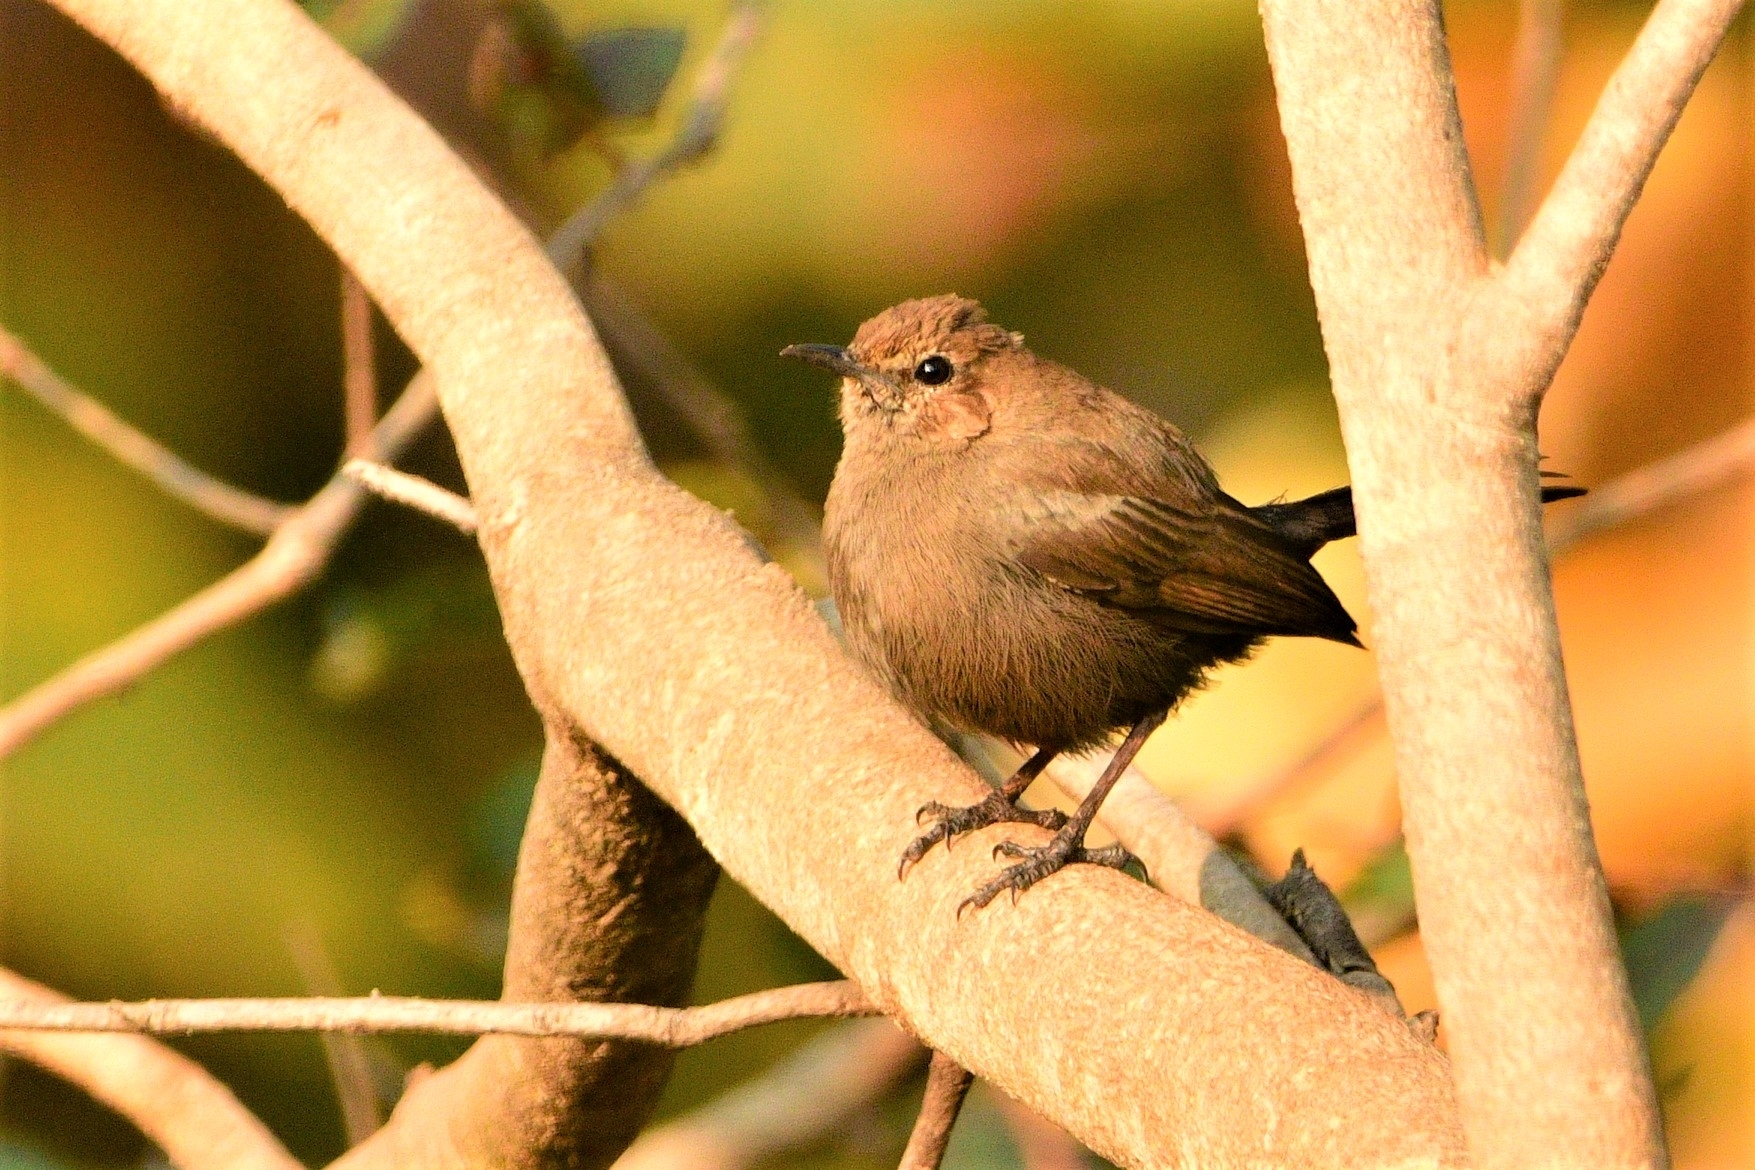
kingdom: Animalia
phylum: Chordata
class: Aves
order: Passeriformes
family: Muscicapidae
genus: Saxicoloides
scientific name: Saxicoloides fulicatus
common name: Indian robin
